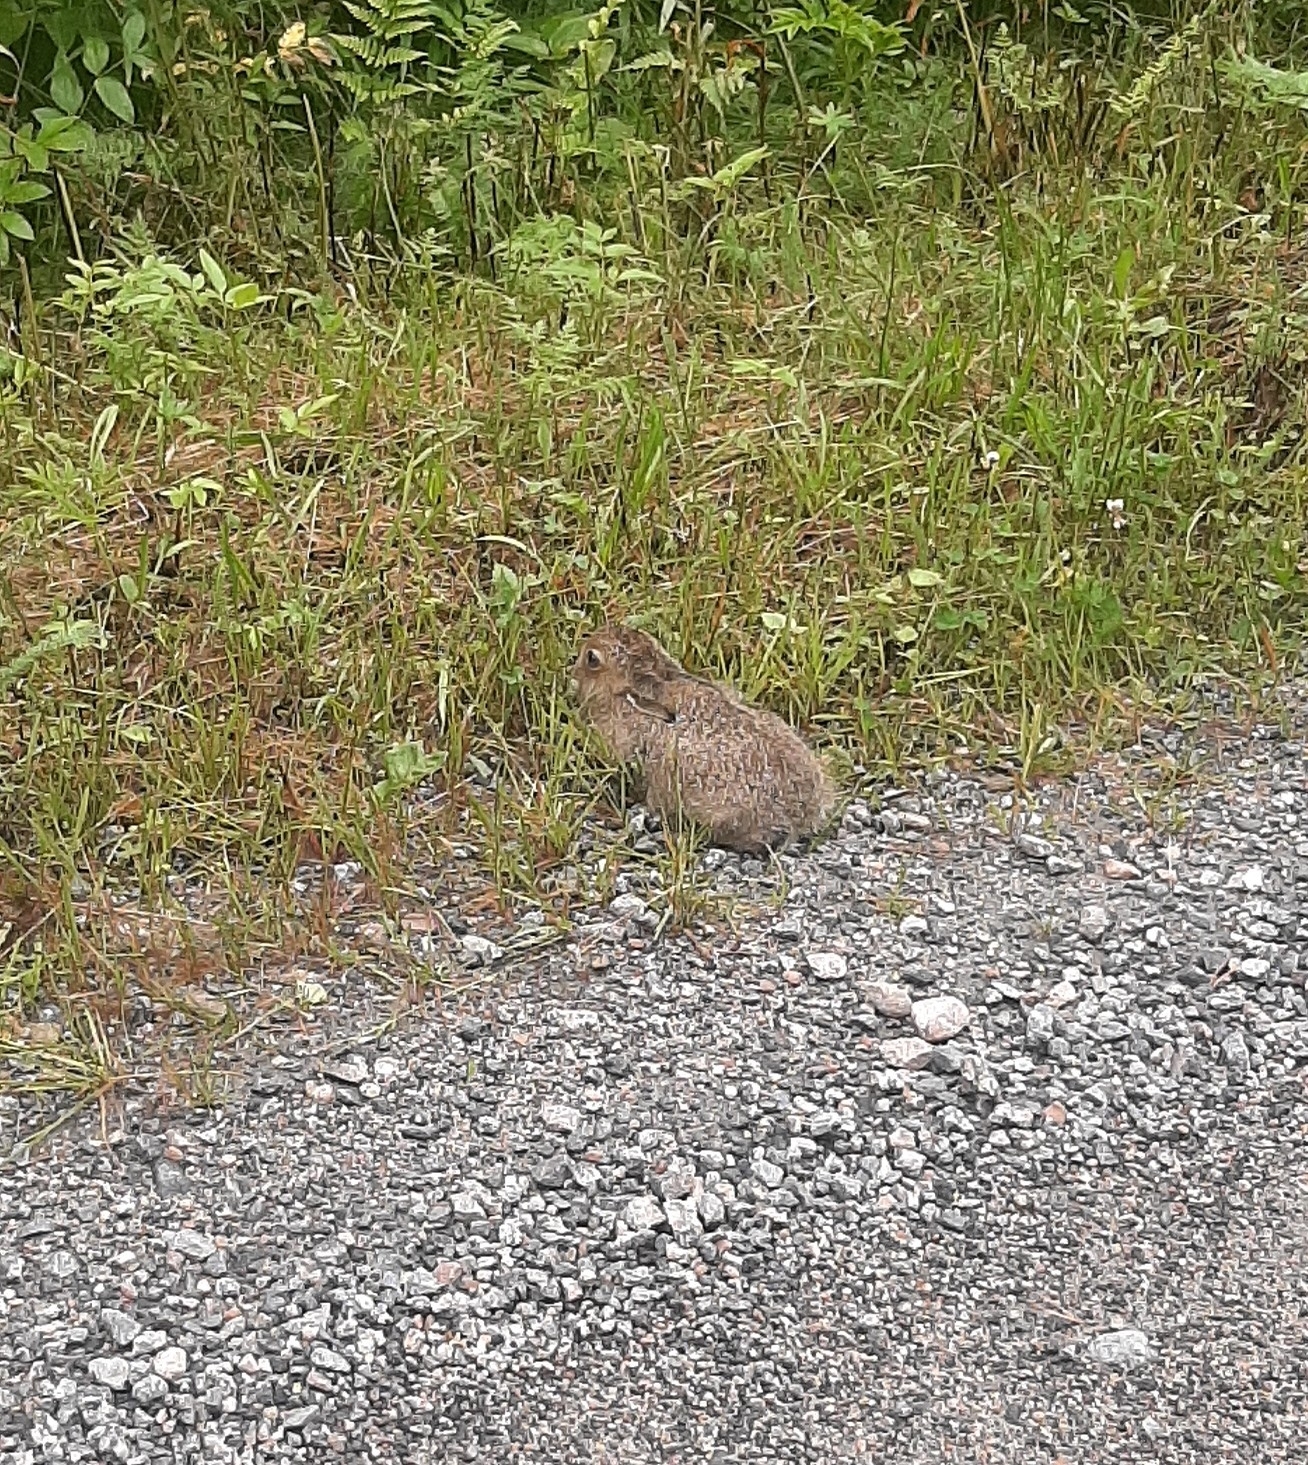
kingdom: Animalia
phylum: Chordata
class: Mammalia
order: Lagomorpha
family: Leporidae
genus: Lepus
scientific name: Lepus timidus
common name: Mountain hare
